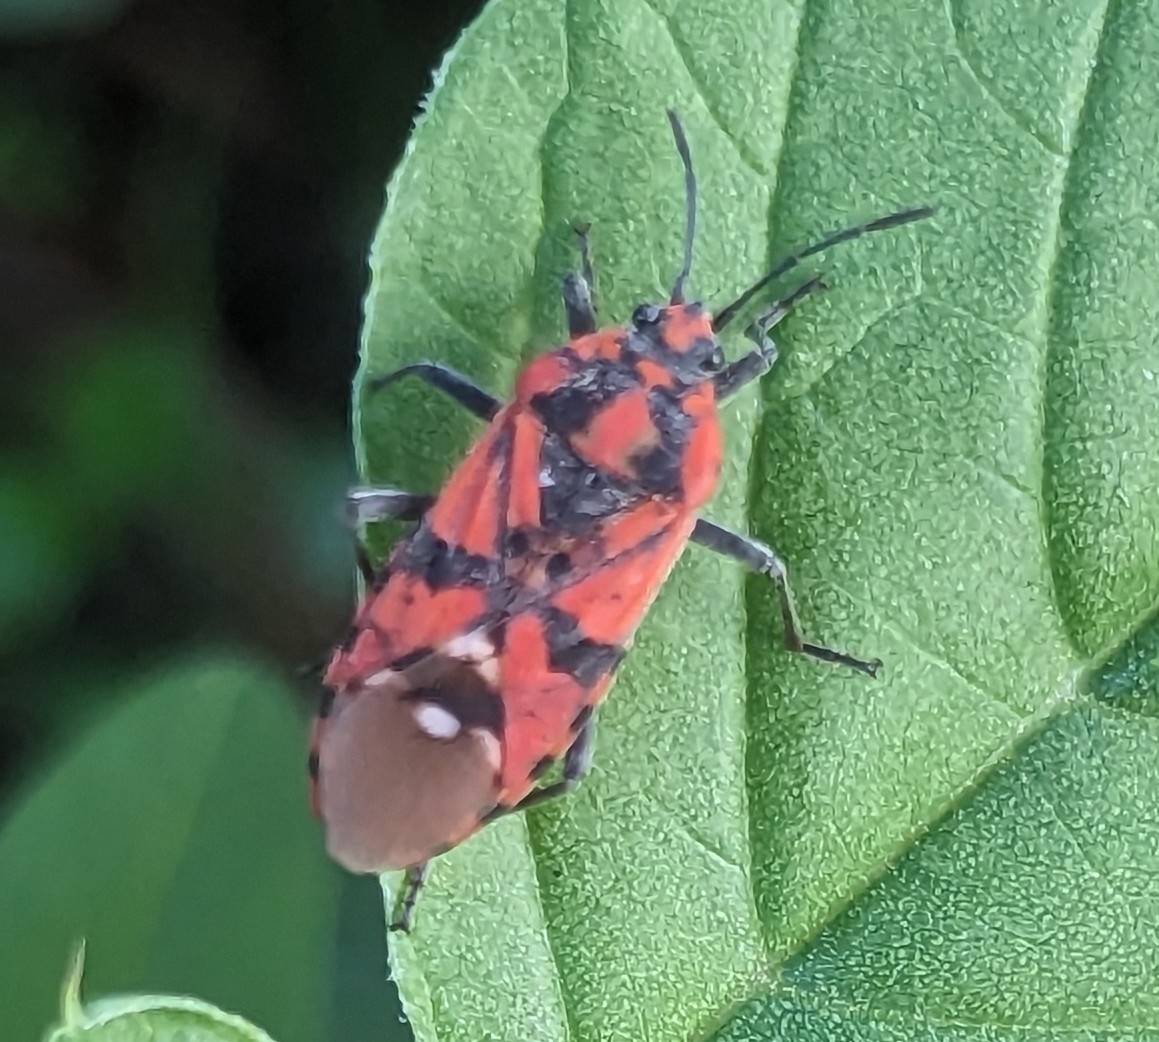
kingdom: Animalia
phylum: Arthropoda
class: Insecta
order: Hemiptera
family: Lygaeidae
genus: Spilostethus
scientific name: Spilostethus pandurus
